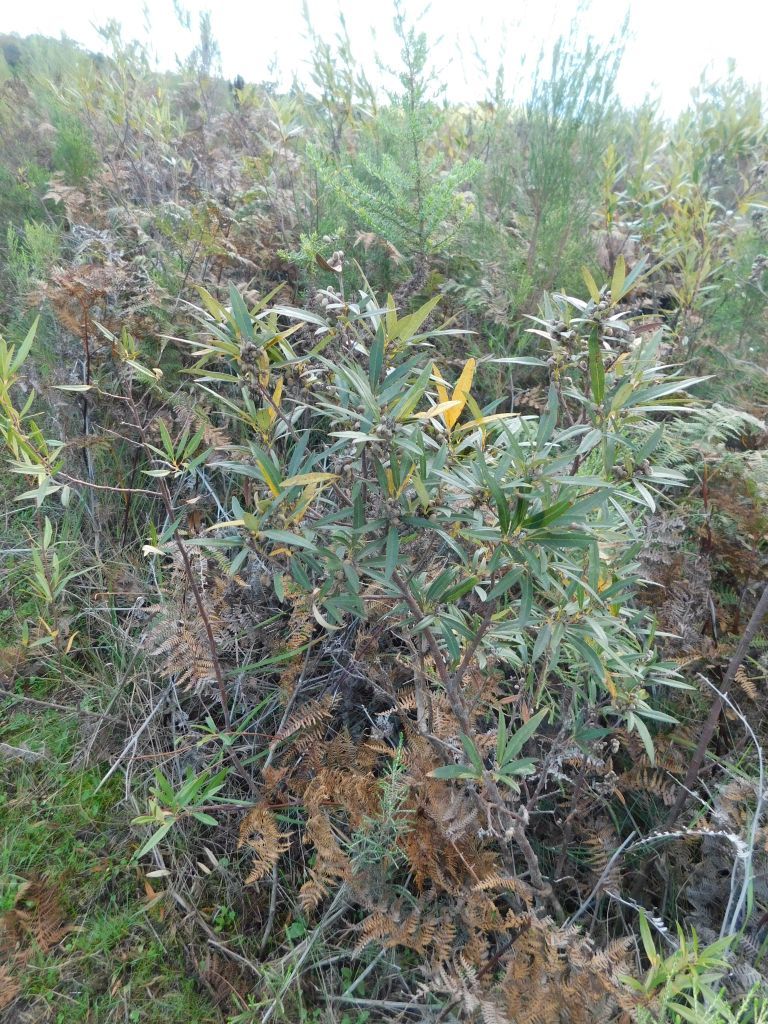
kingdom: Plantae
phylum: Tracheophyta
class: Magnoliopsida
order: Sapindales
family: Anacardiaceae
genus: Searsia
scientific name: Searsia angustifolia
